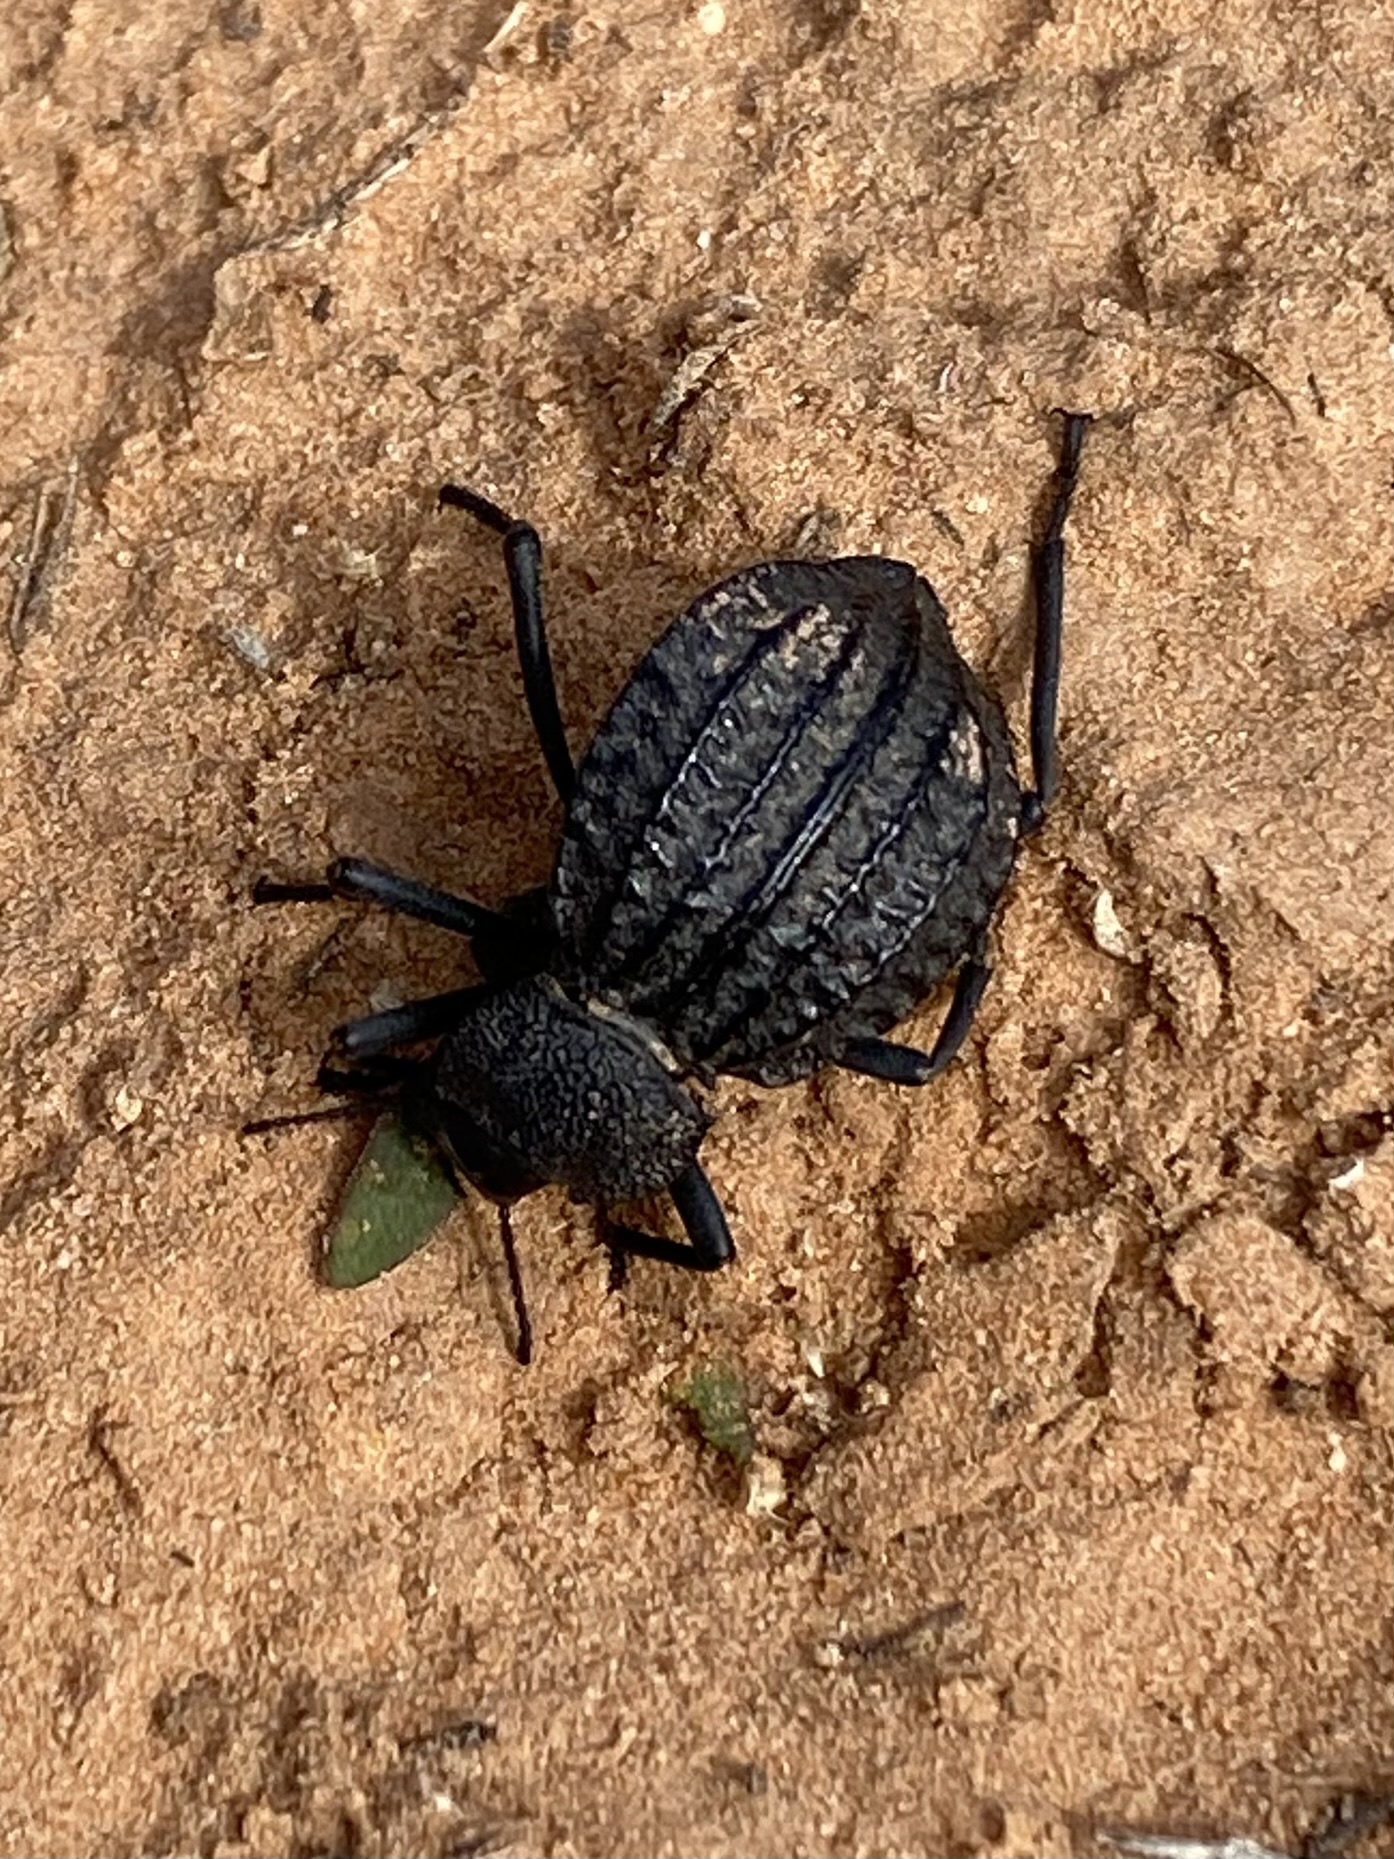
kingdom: Animalia
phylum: Arthropoda
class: Insecta
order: Coleoptera
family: Tenebrionidae
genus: Philolithus
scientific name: Philolithus sordidus
